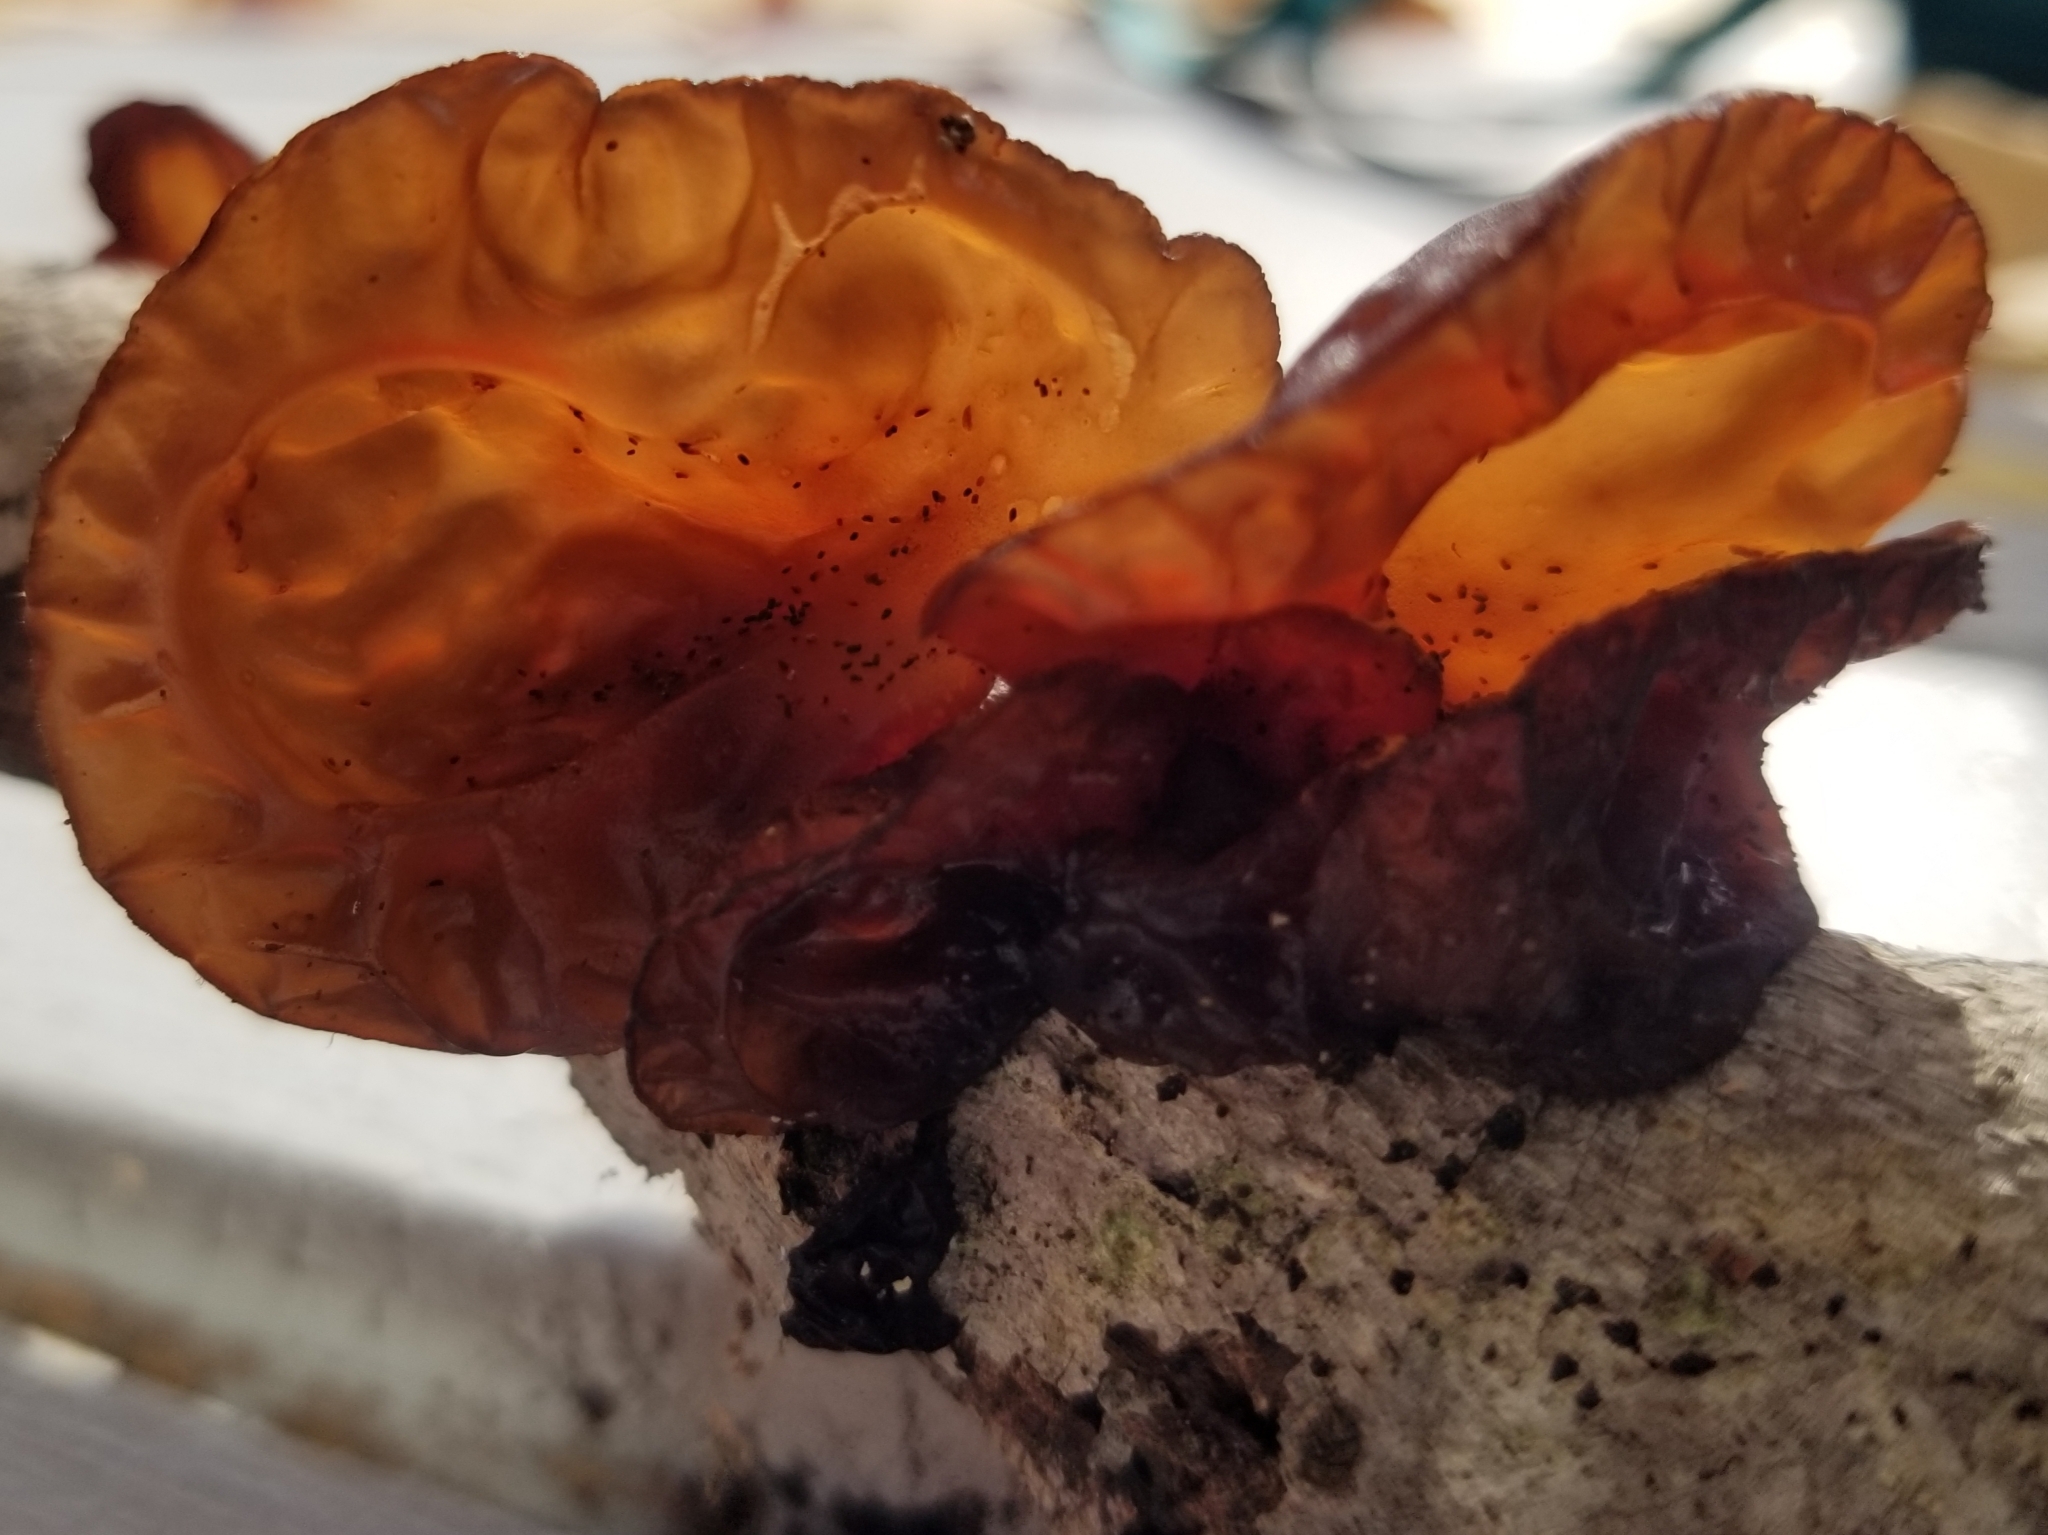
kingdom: Fungi
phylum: Basidiomycota
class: Agaricomycetes
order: Auriculariales
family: Auriculariaceae
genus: Exidia
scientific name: Exidia
